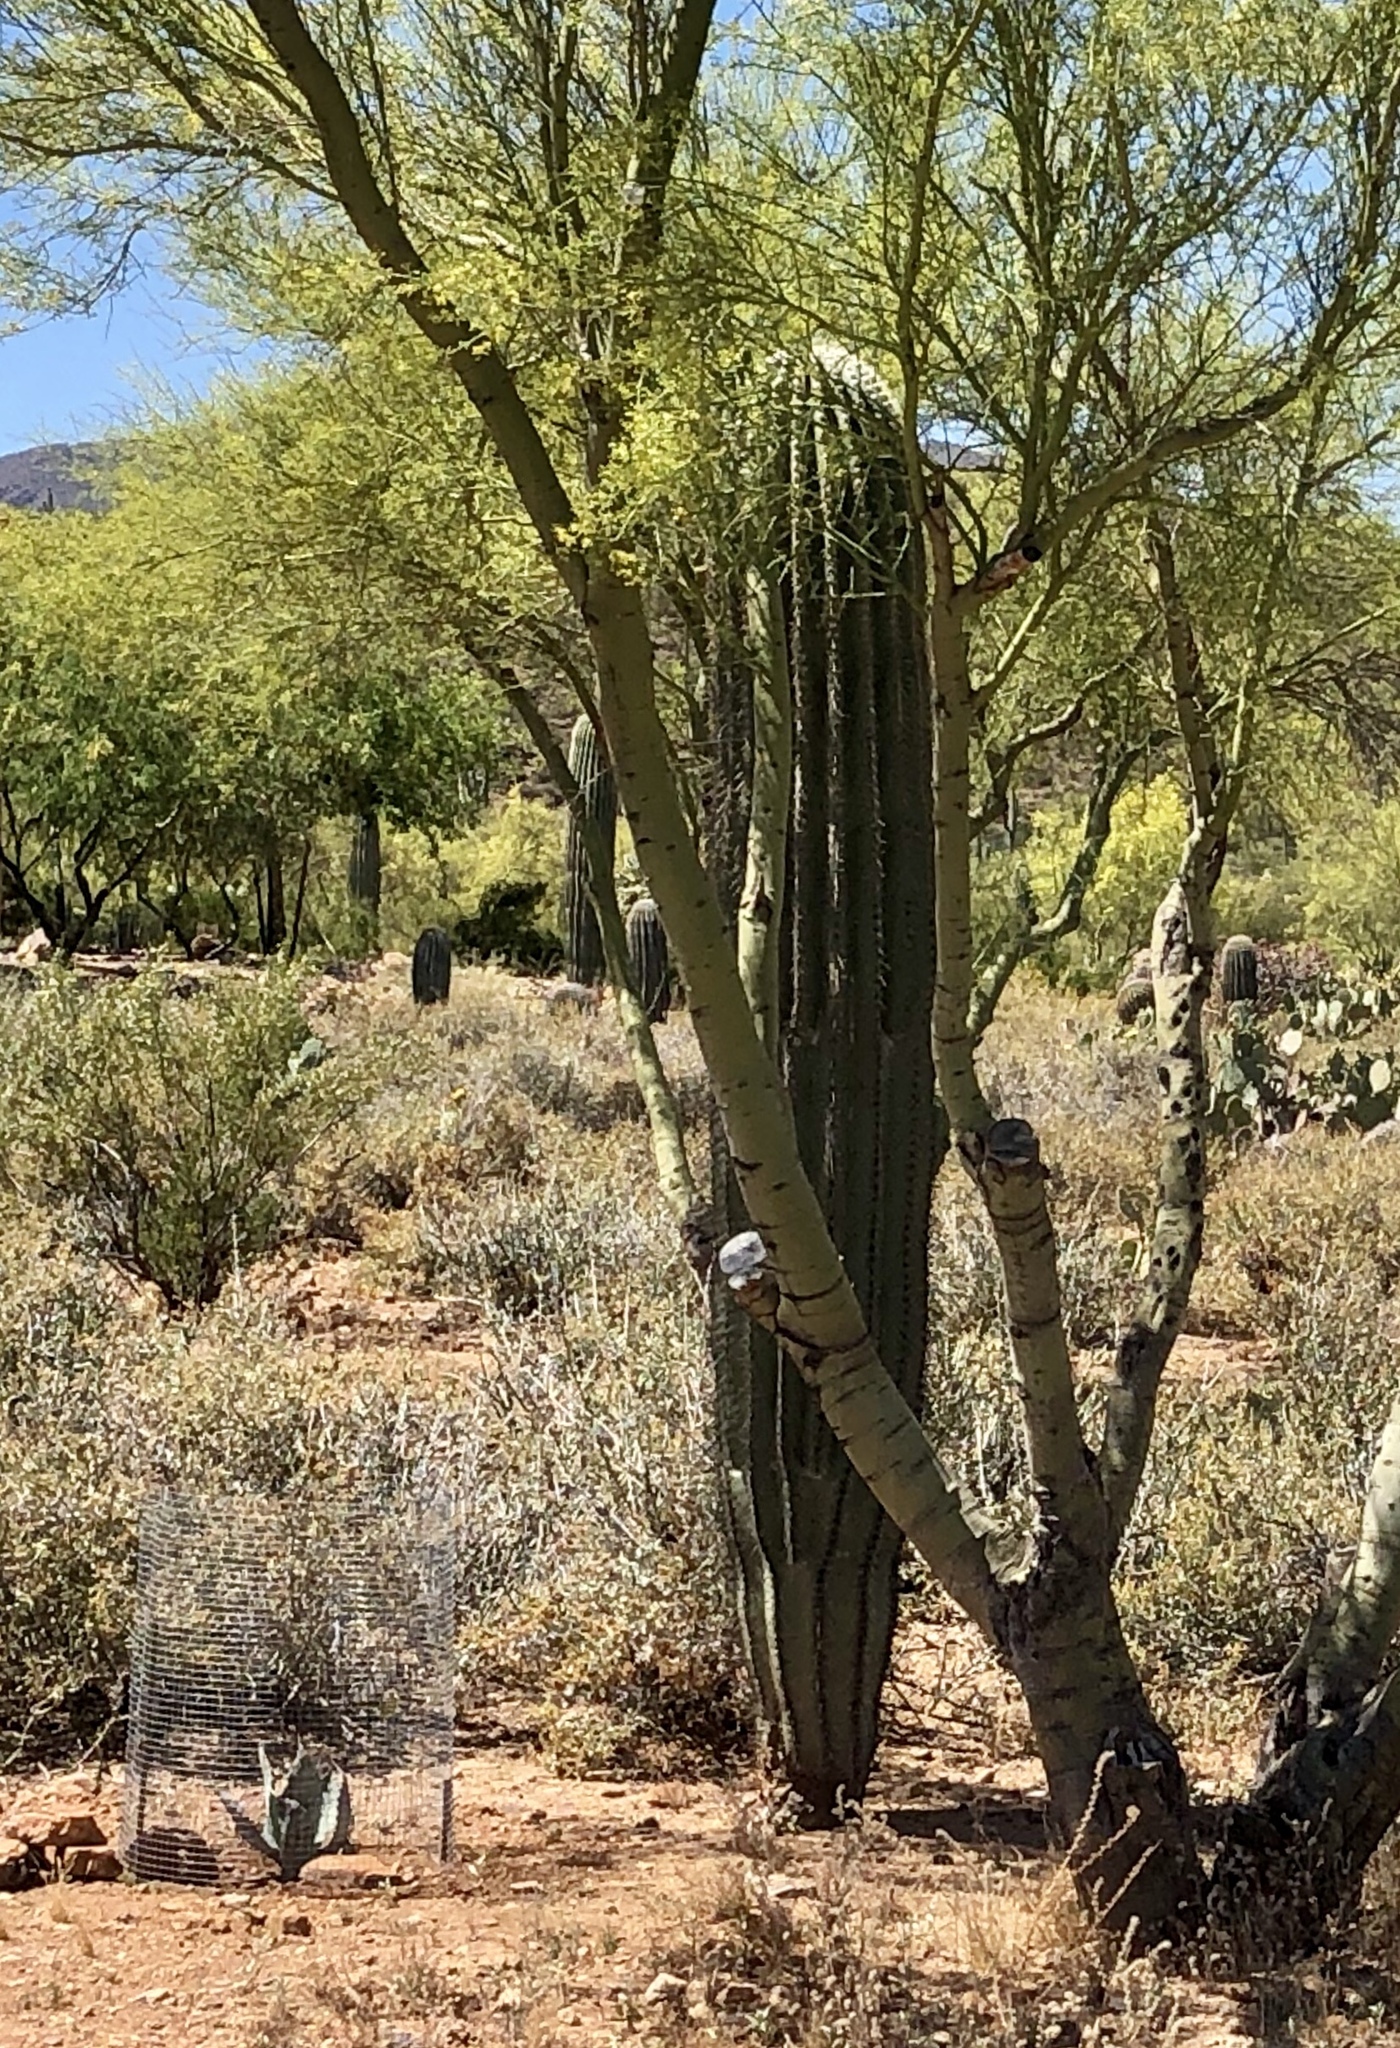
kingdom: Plantae
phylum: Tracheophyta
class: Magnoliopsida
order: Caryophyllales
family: Cactaceae
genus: Carnegiea
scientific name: Carnegiea gigantea
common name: Saguaro
